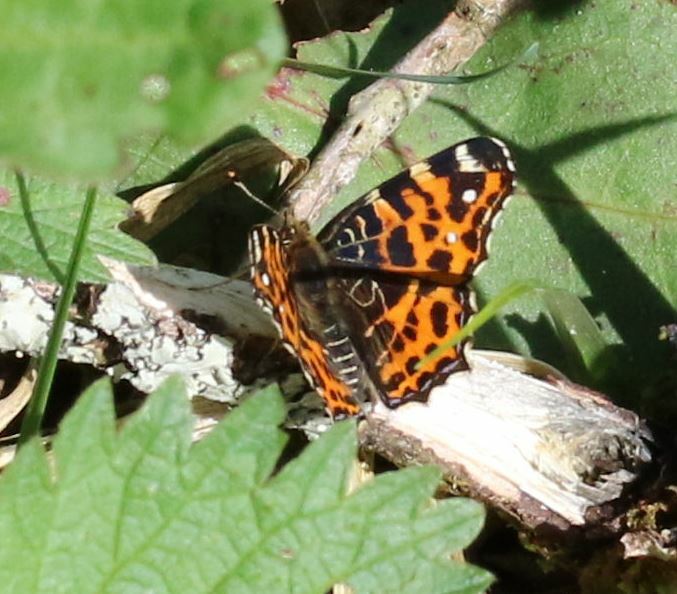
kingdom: Animalia
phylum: Arthropoda
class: Insecta
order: Lepidoptera
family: Nymphalidae
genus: Araschnia
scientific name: Araschnia levana
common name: Map butterfly
